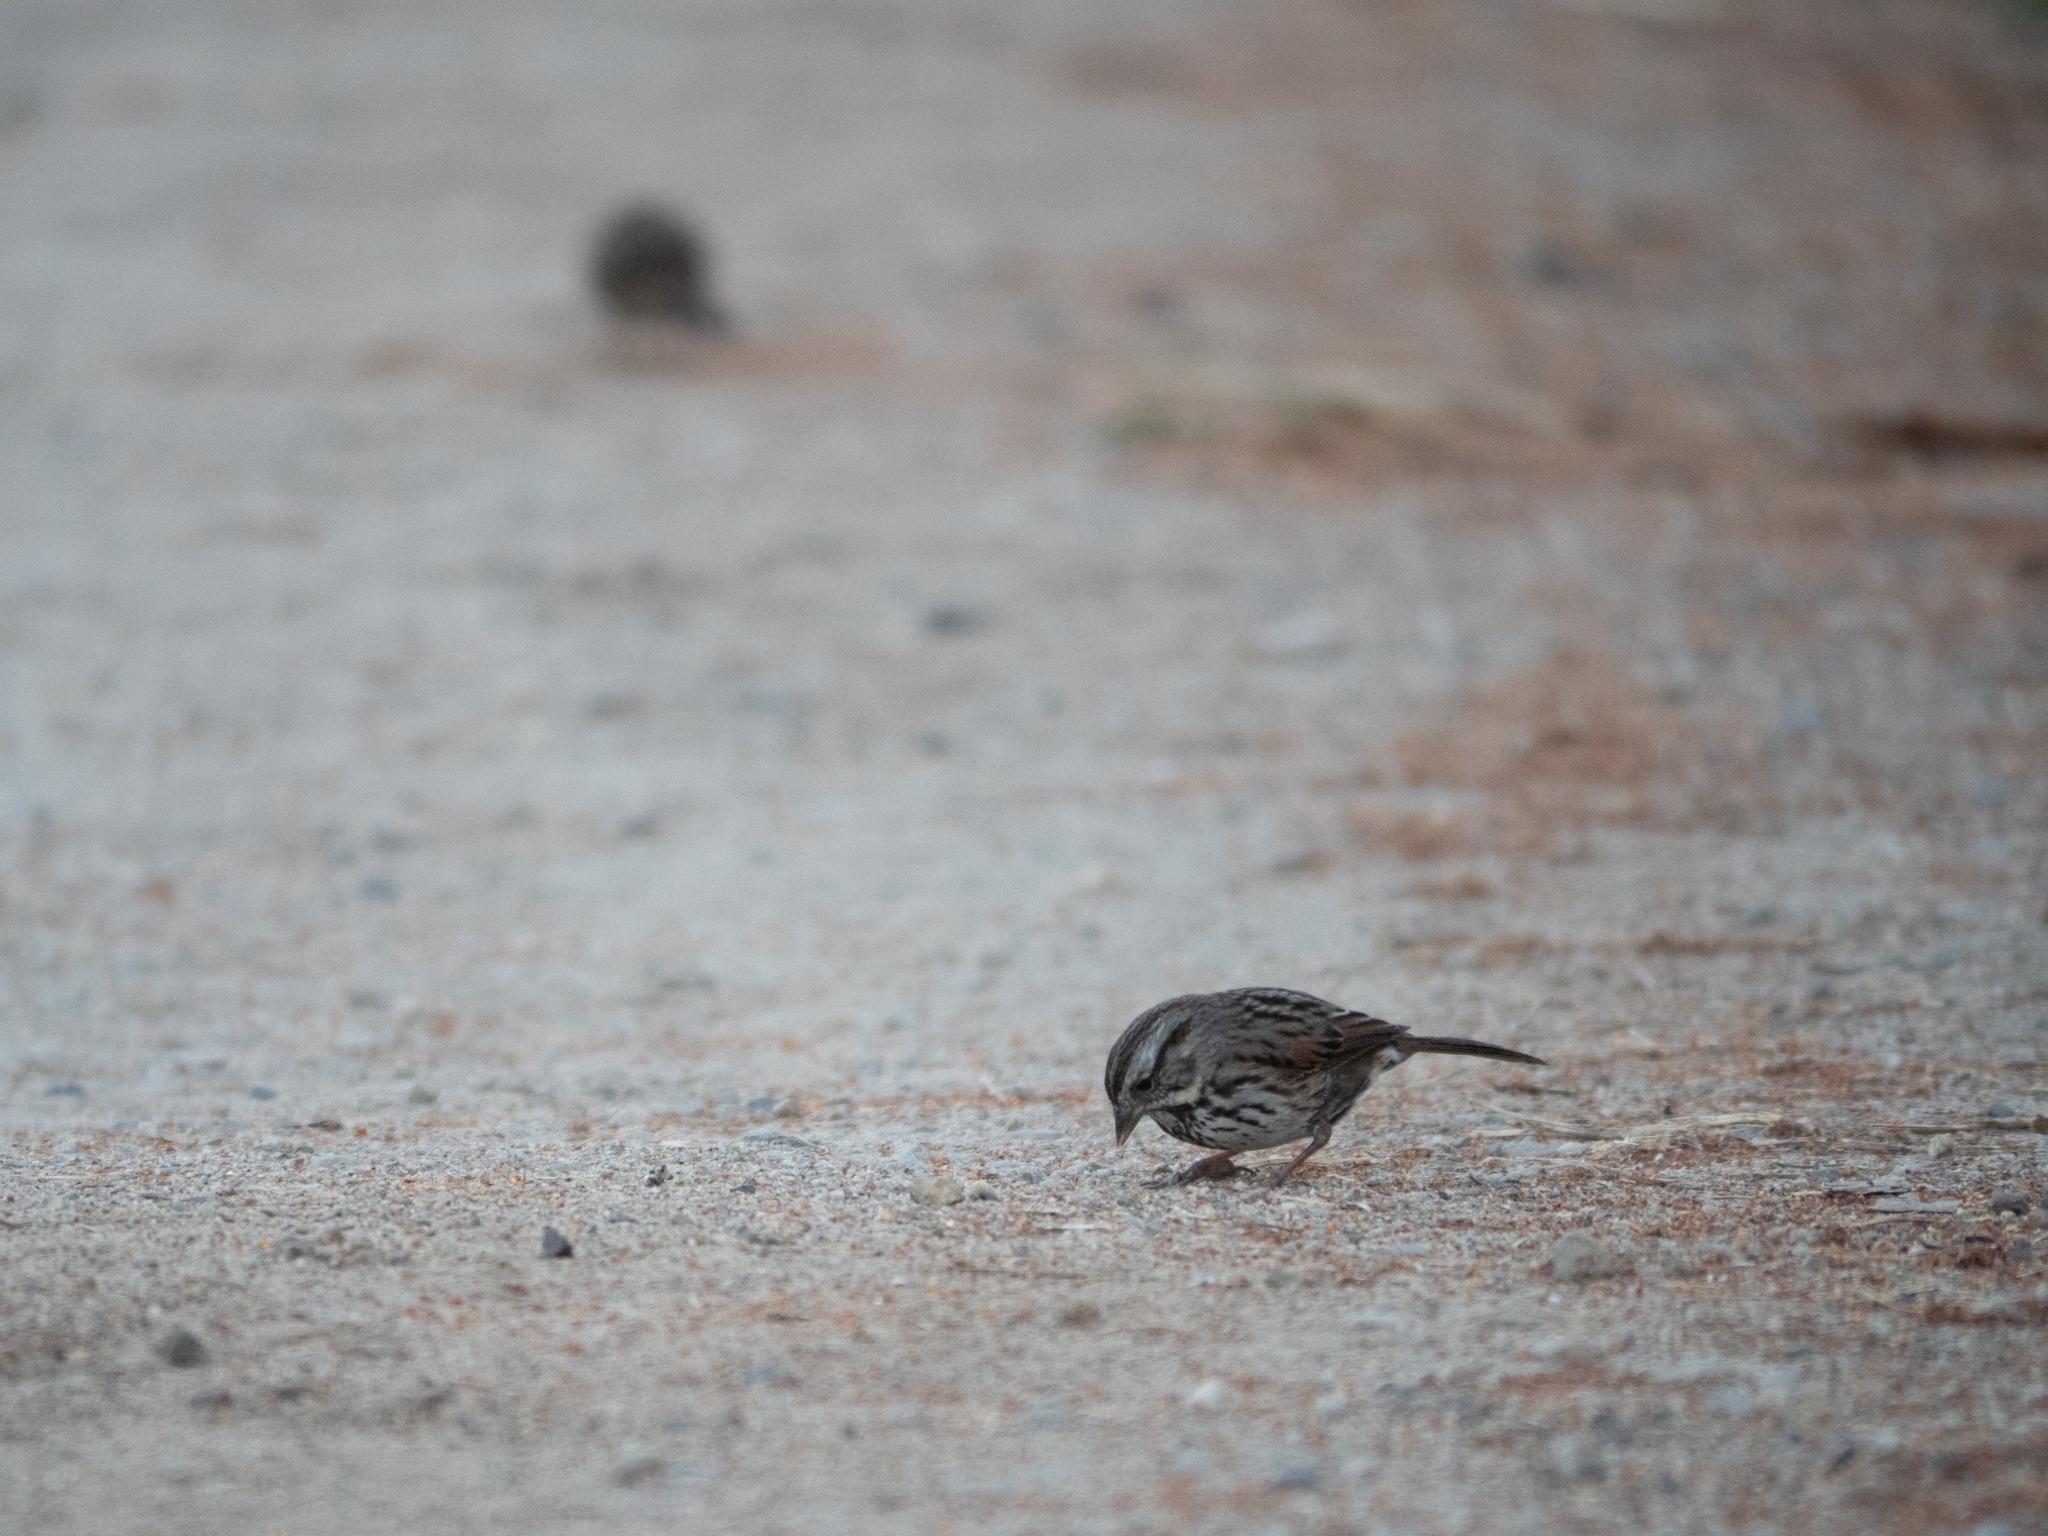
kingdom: Animalia
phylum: Chordata
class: Aves
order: Passeriformes
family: Passerellidae
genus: Melospiza
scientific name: Melospiza melodia
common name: Song sparrow
